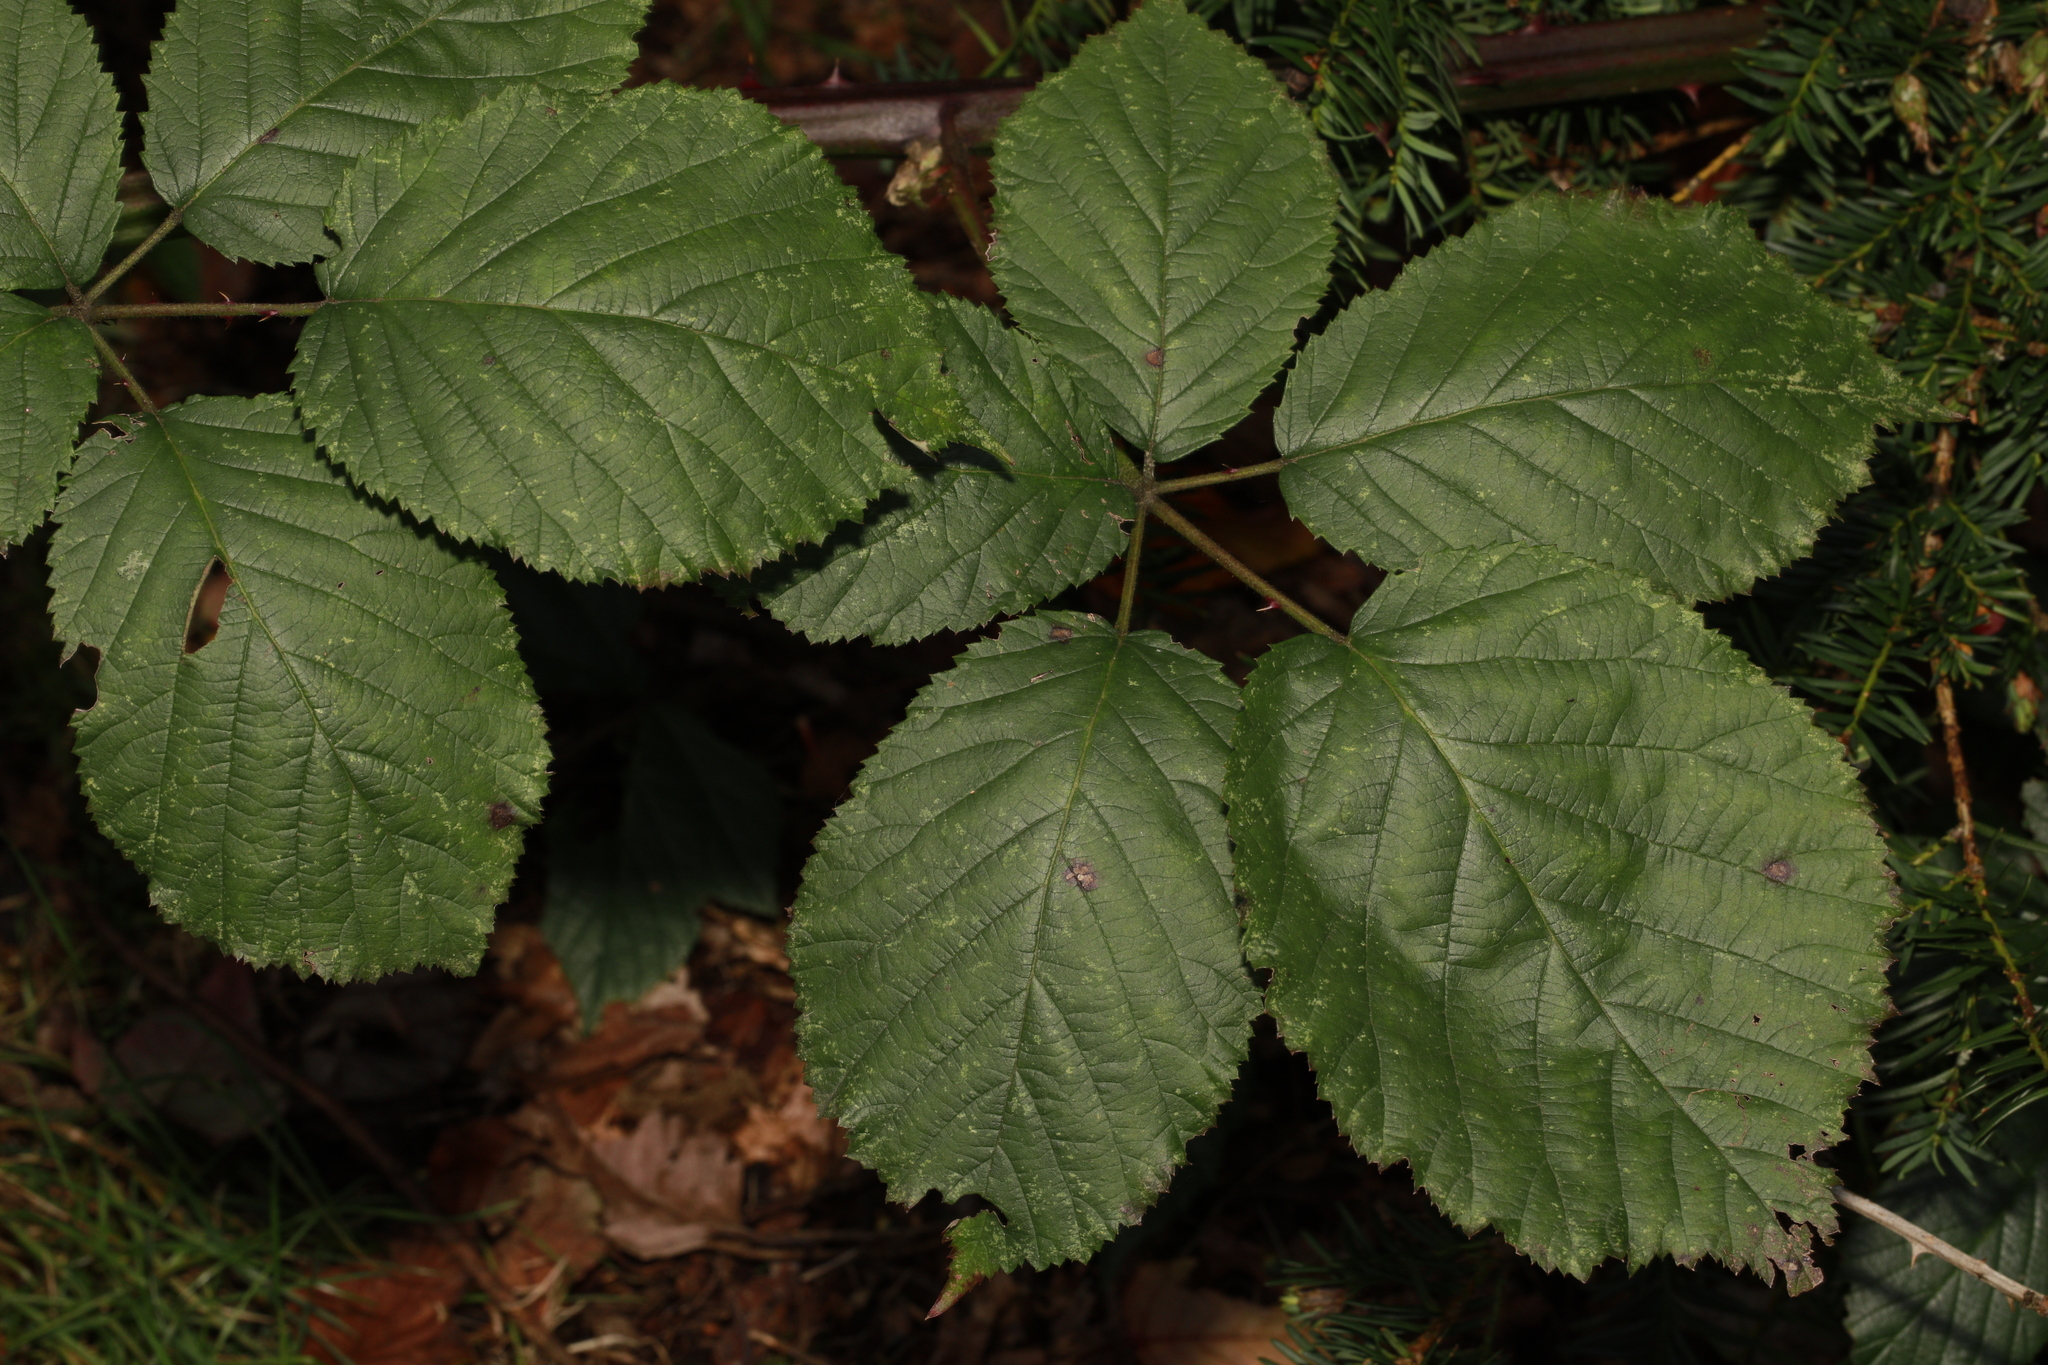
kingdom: Plantae
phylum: Tracheophyta
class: Magnoliopsida
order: Rosales
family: Rosaceae
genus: Rubus
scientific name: Rubus armeniacus
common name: Himalayan blackberry
